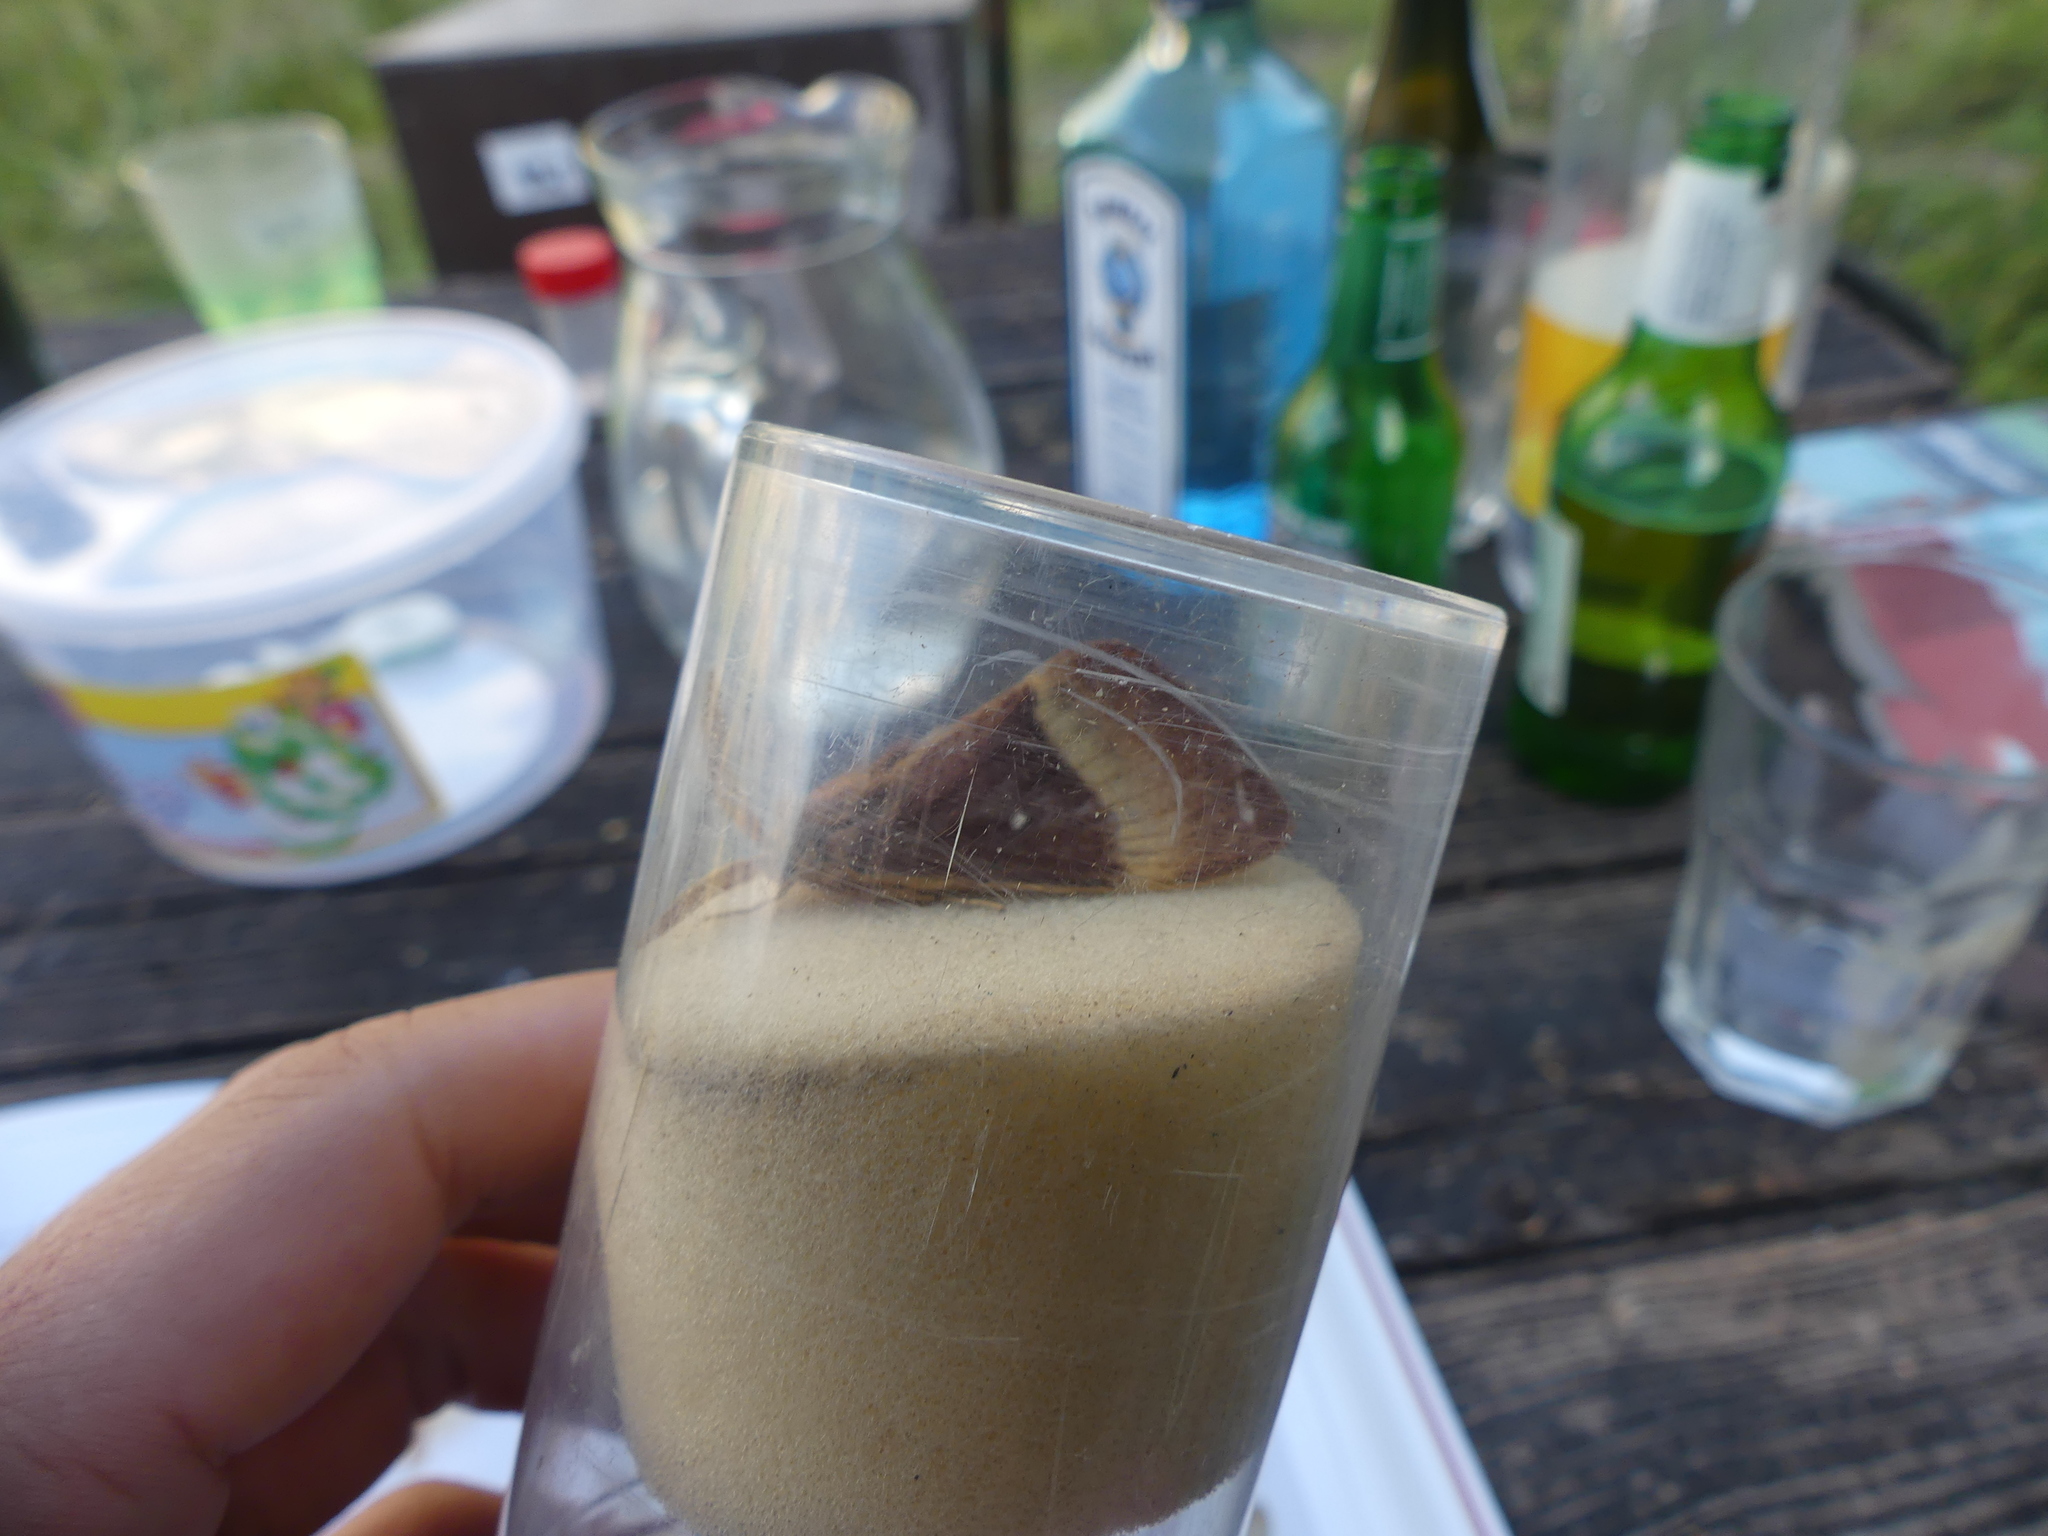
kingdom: Animalia
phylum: Arthropoda
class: Insecta
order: Lepidoptera
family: Lasiocampidae
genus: Lasiocampa
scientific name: Lasiocampa quercus
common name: Oak eggar
